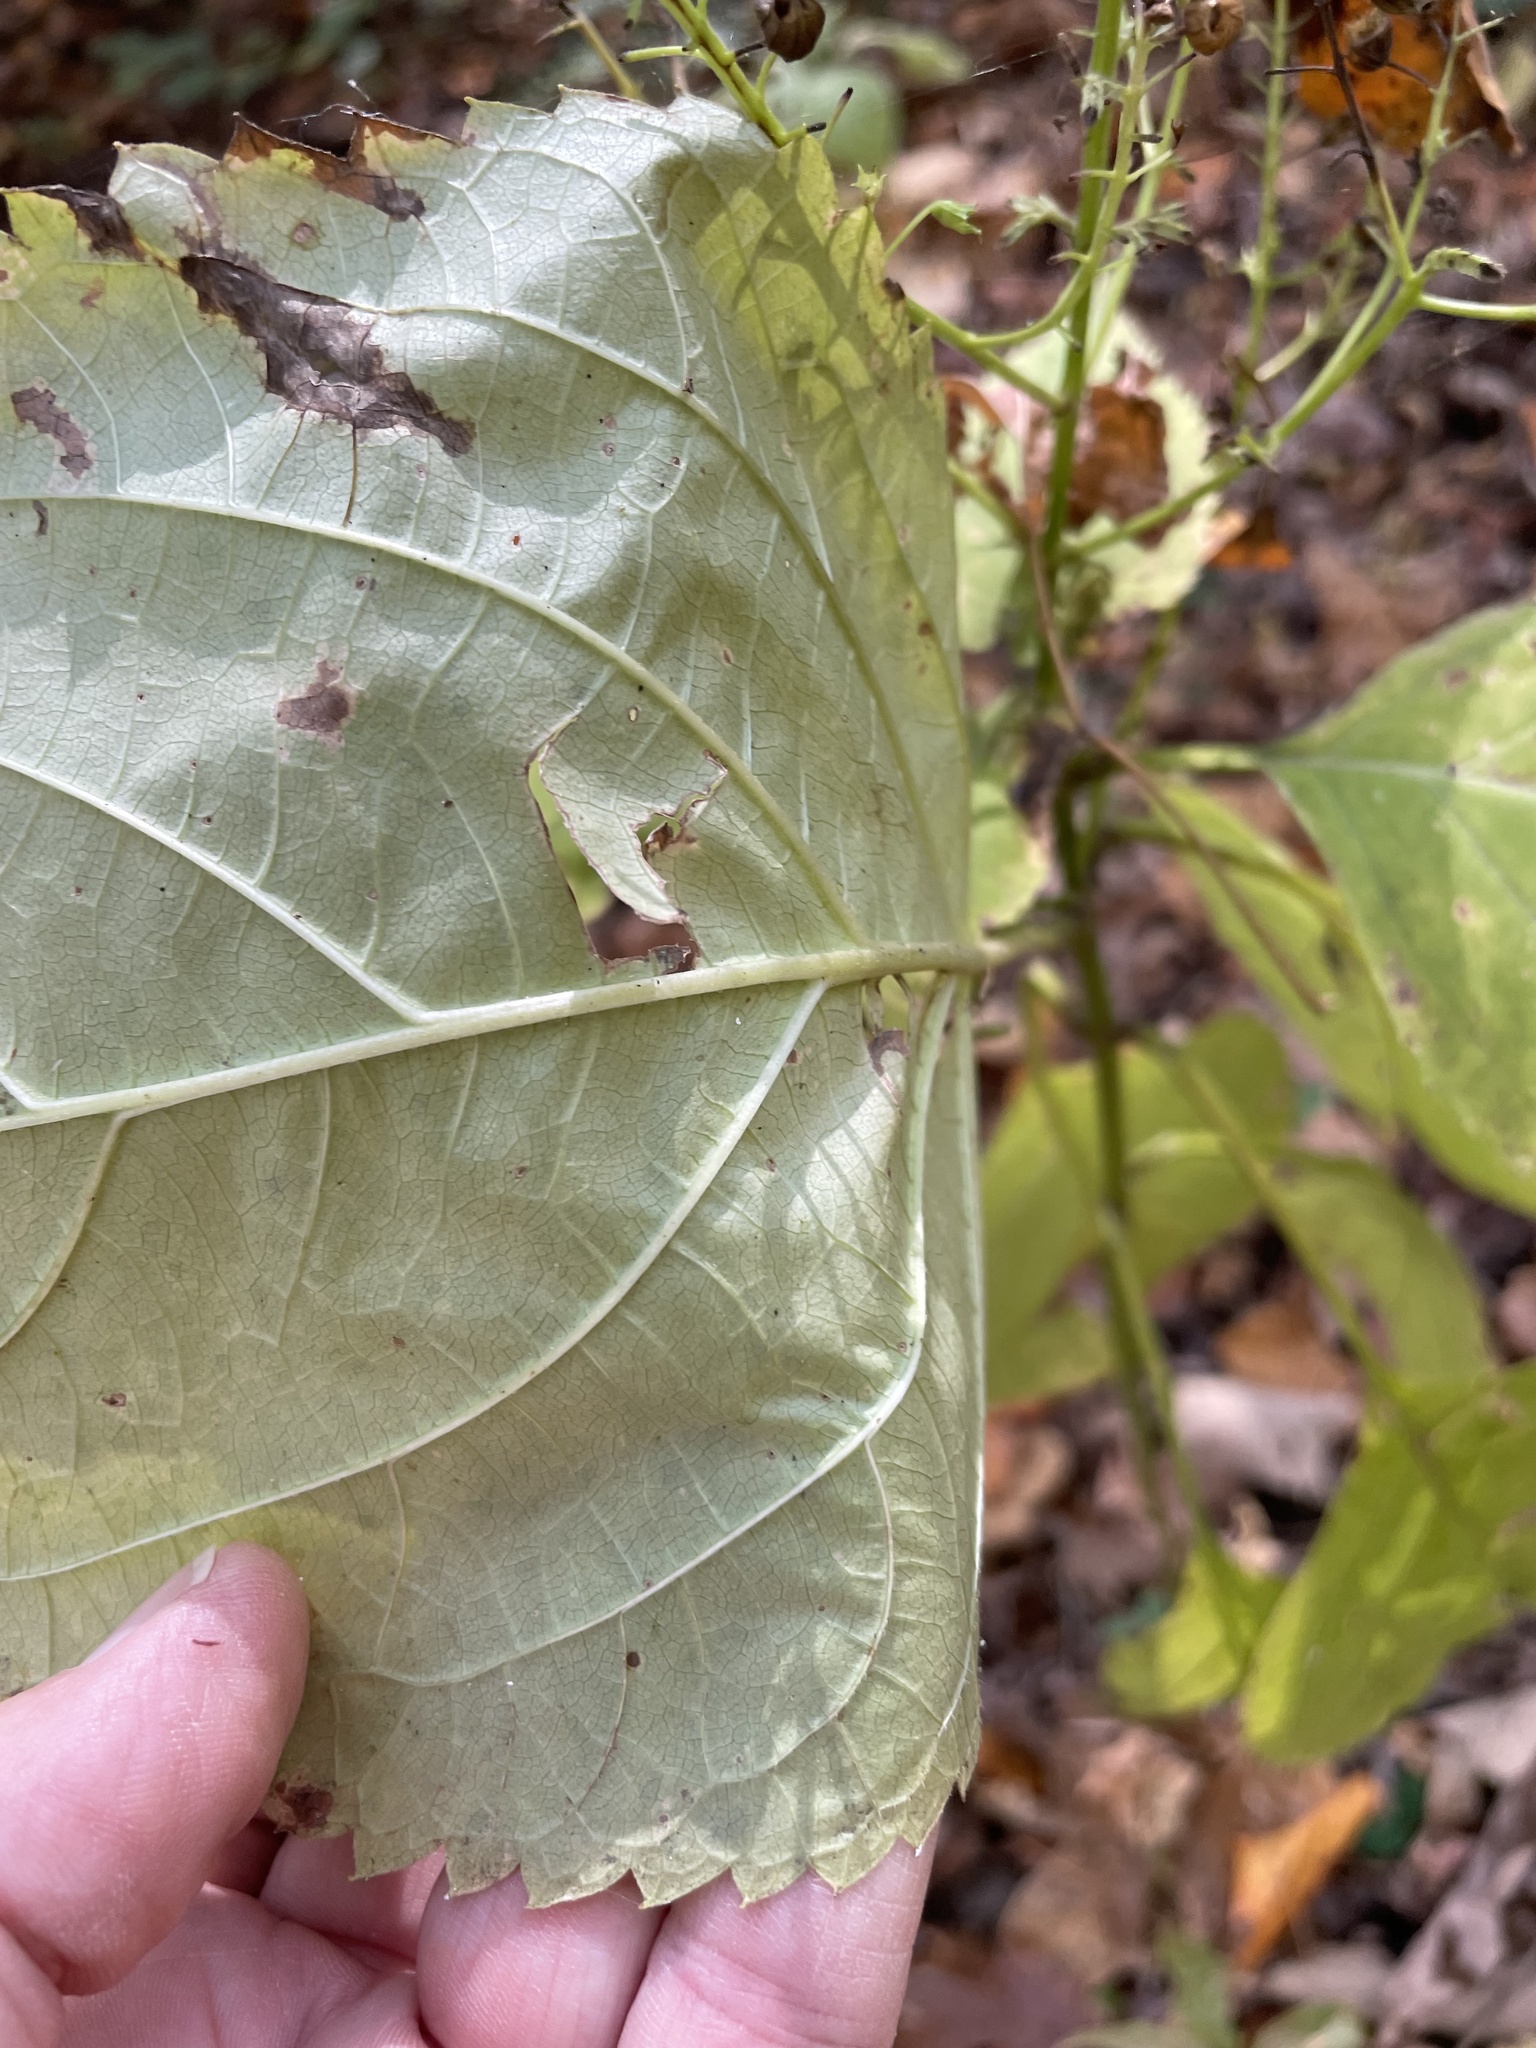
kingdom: Plantae
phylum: Tracheophyta
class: Magnoliopsida
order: Lamiales
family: Lamiaceae
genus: Collinsonia
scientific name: Collinsonia canadensis
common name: Northern horsebalm
